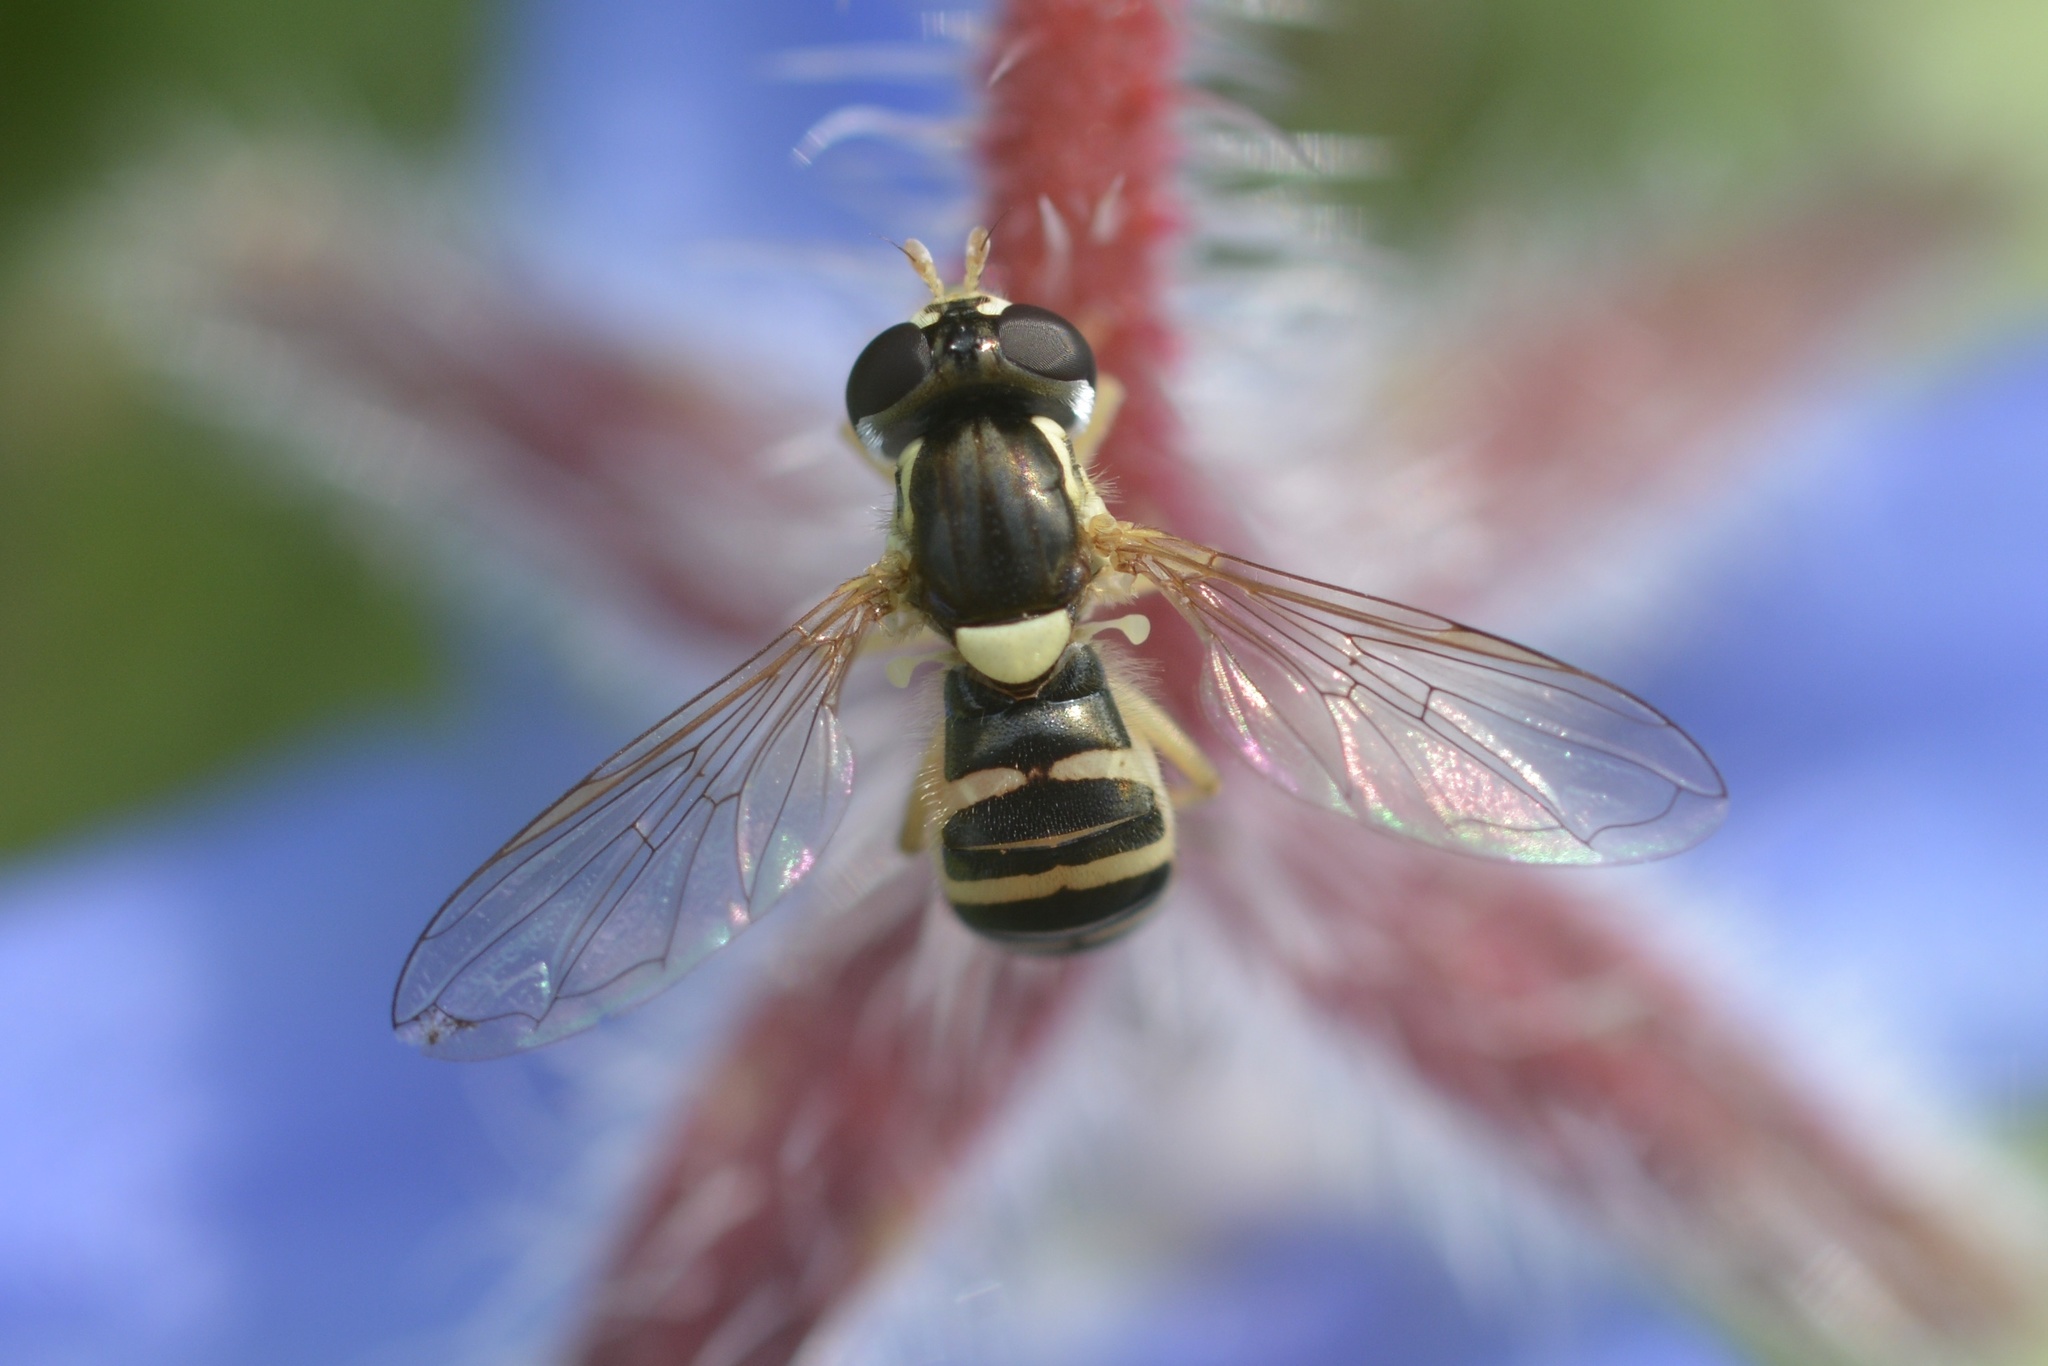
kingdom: Animalia
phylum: Arthropoda
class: Insecta
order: Diptera
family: Syrphidae
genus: Sphaerophoria
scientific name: Sphaerophoria sulphuripes
